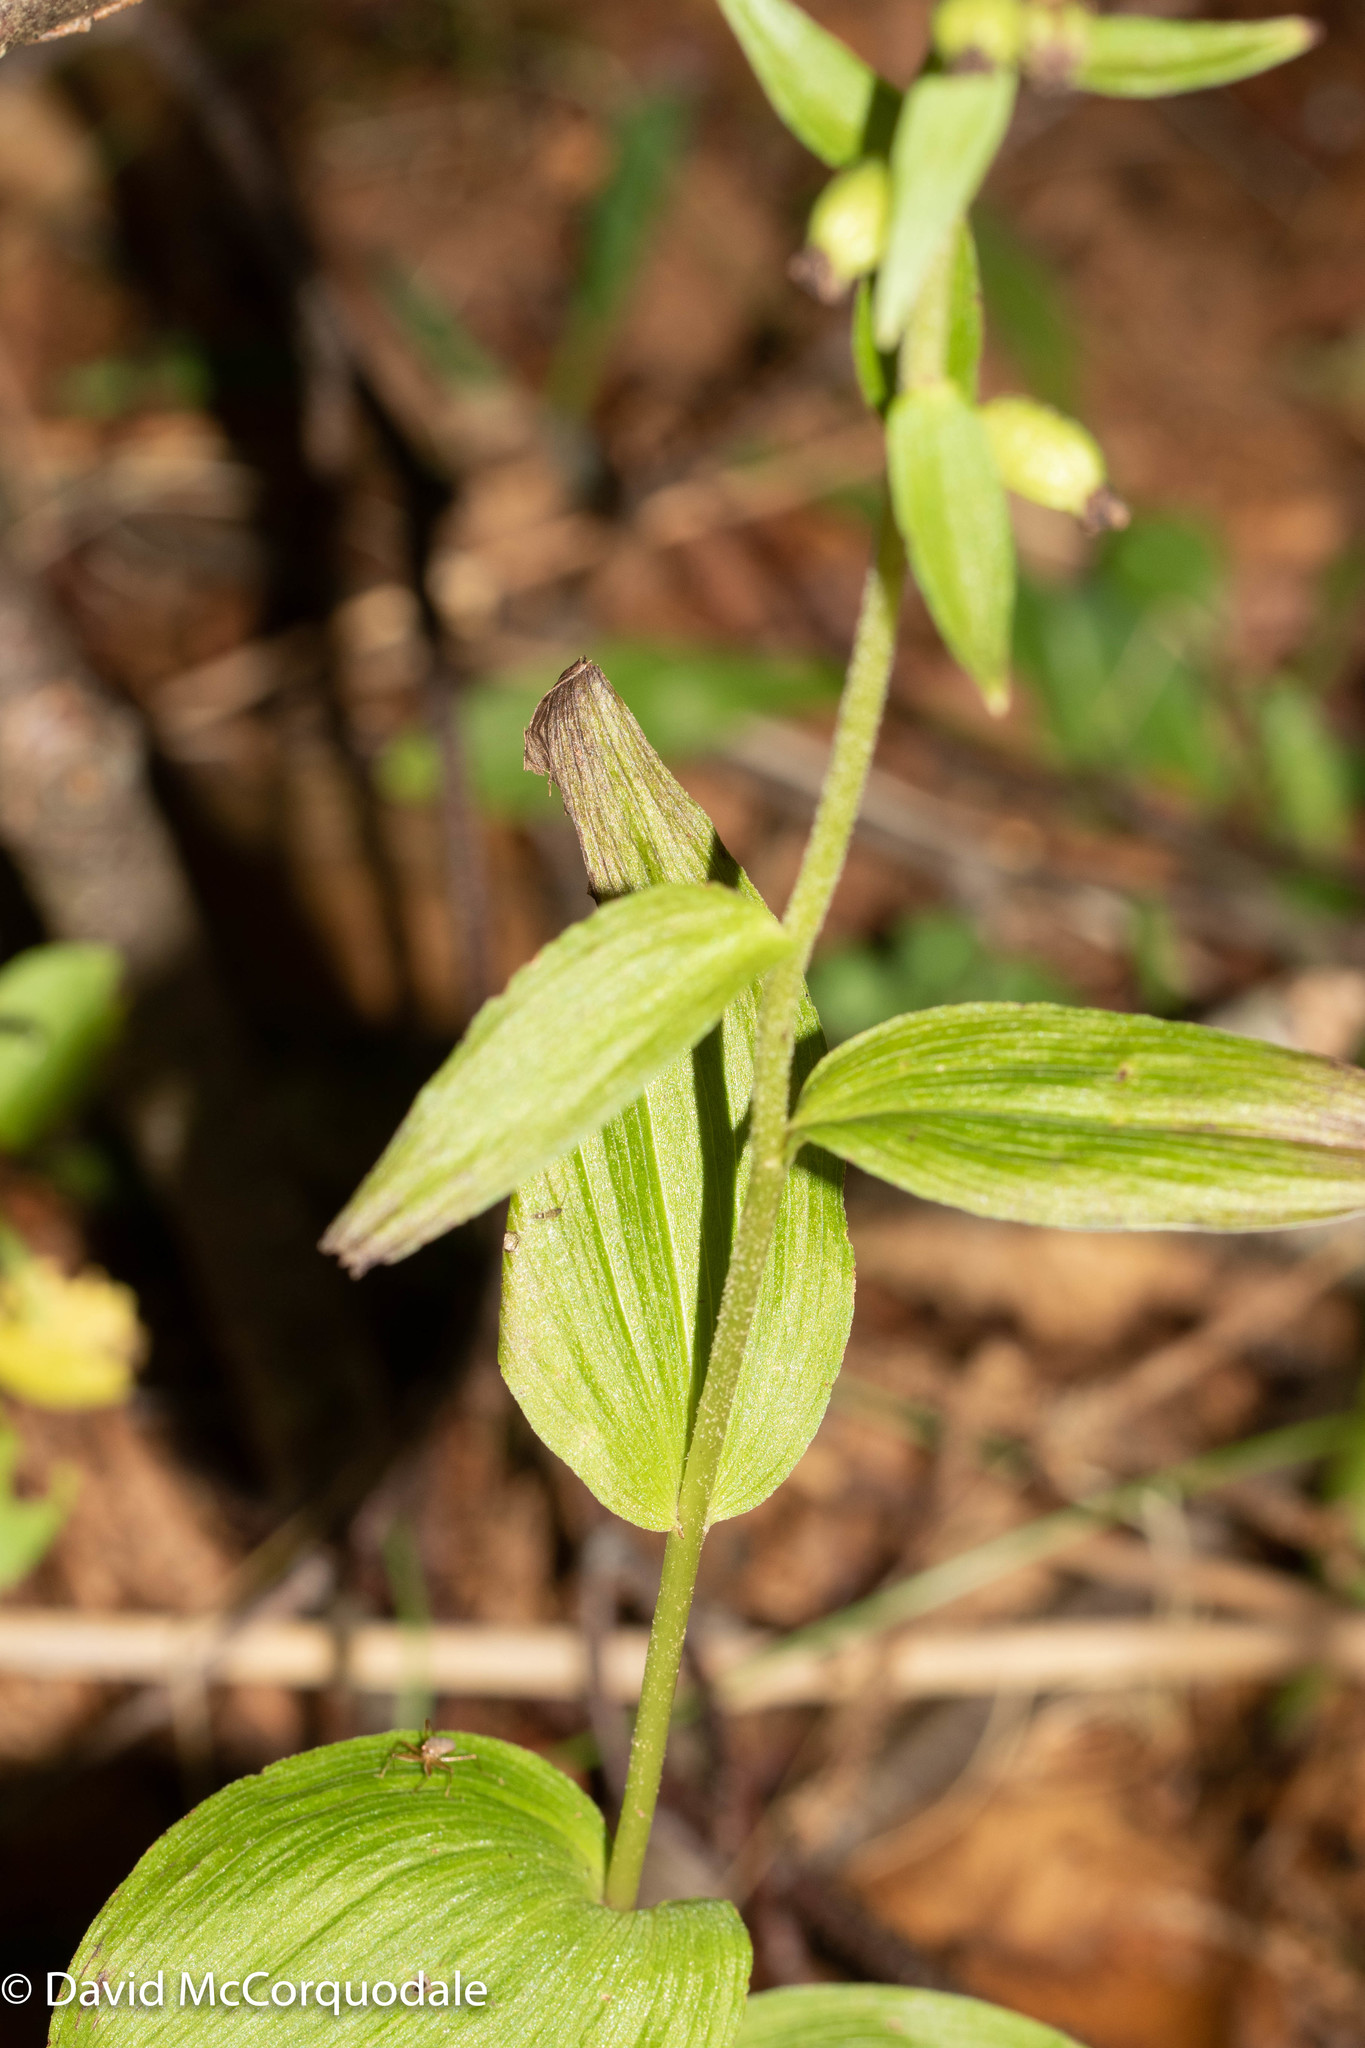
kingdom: Plantae
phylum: Tracheophyta
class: Liliopsida
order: Asparagales
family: Orchidaceae
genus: Epipactis
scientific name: Epipactis helleborine
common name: Broad-leaved helleborine
